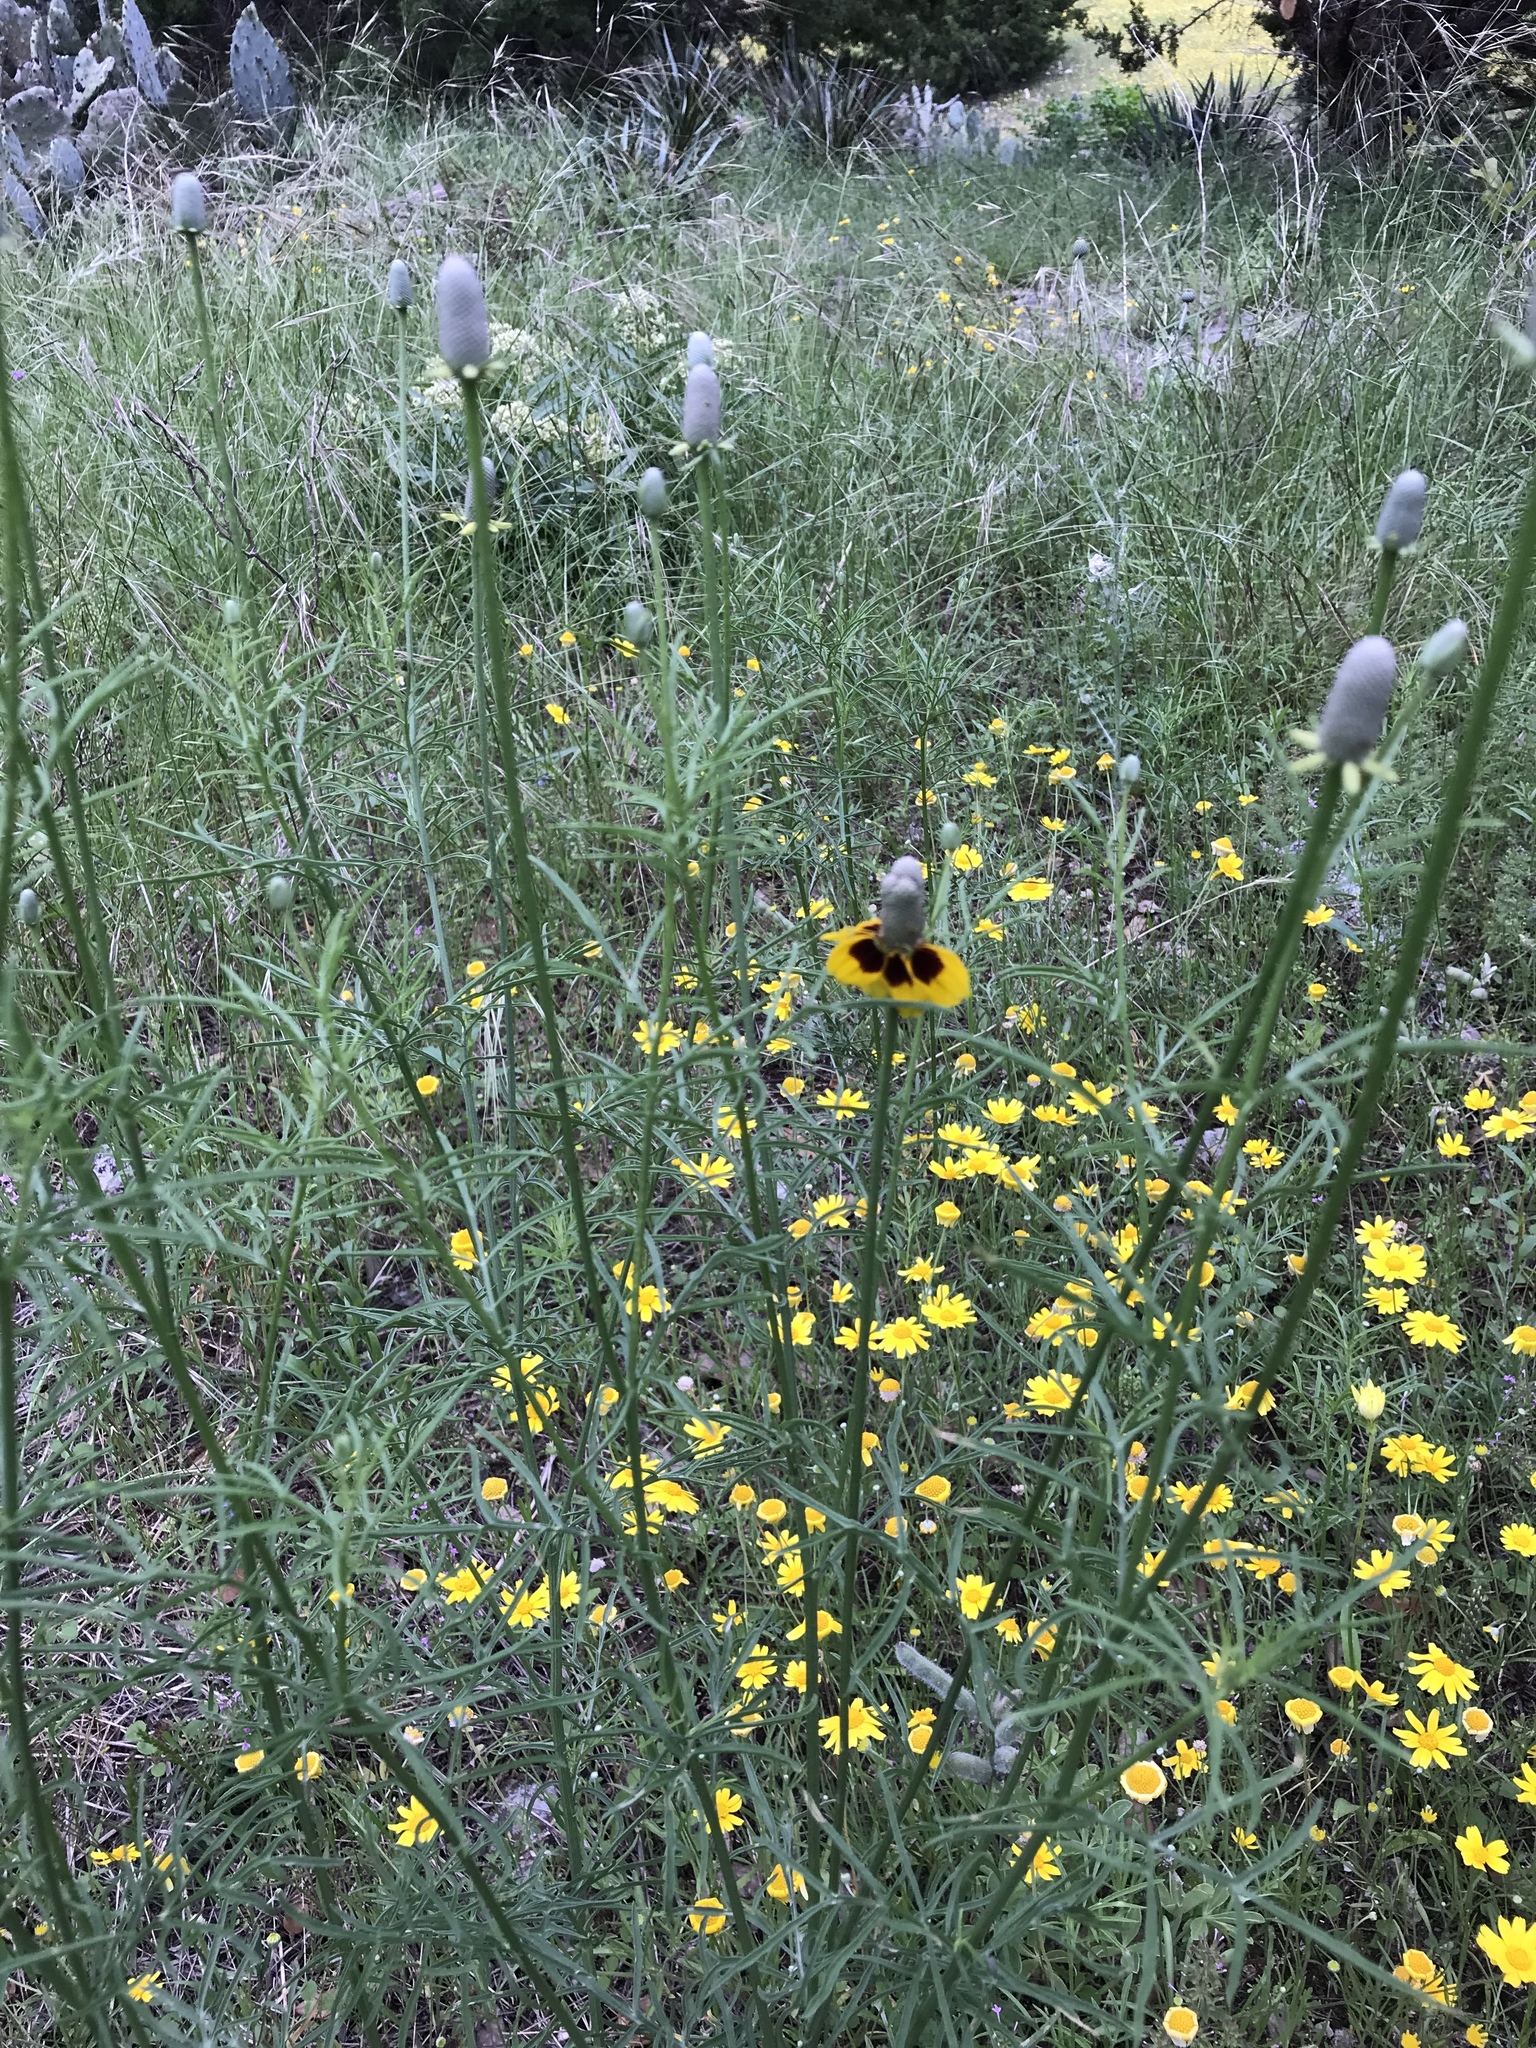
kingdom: Plantae
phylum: Tracheophyta
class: Magnoliopsida
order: Asterales
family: Asteraceae
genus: Ratibida
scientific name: Ratibida columnifera
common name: Prairie coneflower
